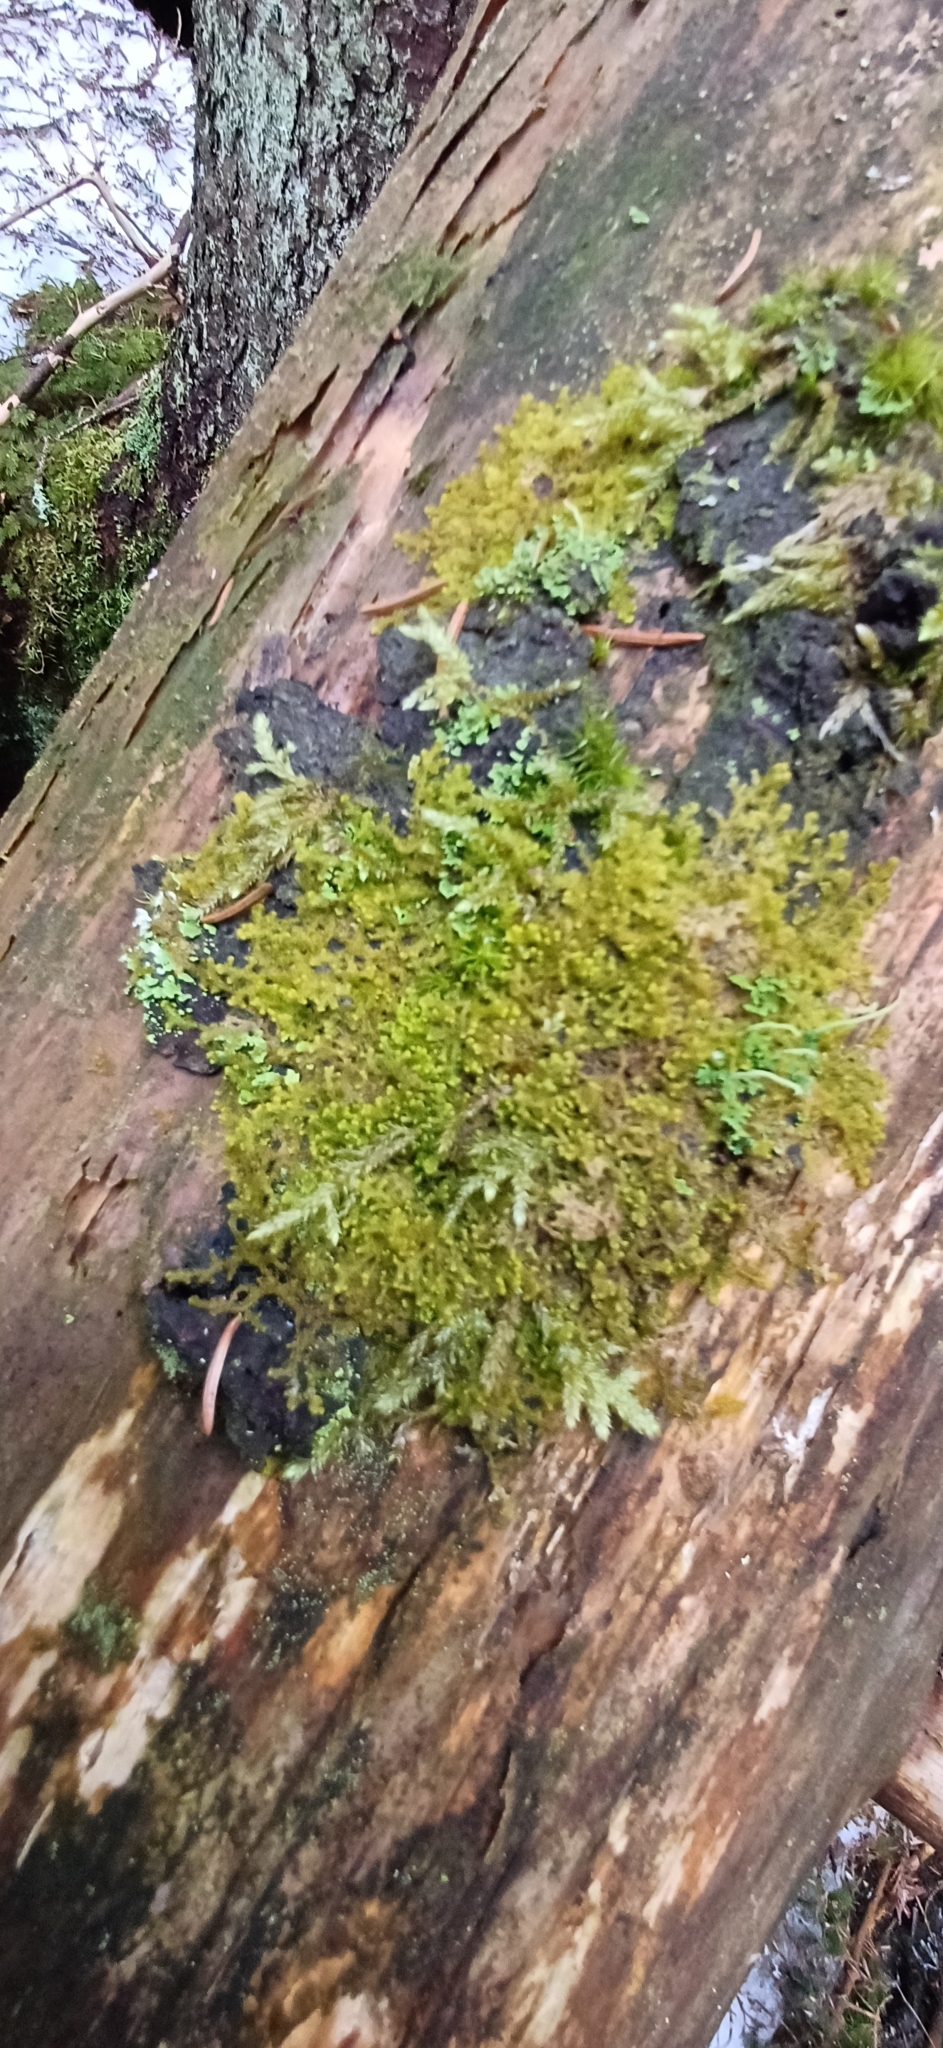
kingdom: Plantae
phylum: Marchantiophyta
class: Jungermanniopsida
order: Ptilidiales
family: Ptilidiaceae
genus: Ptilidium
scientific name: Ptilidium pulcherrimum
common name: Tree fringewort
